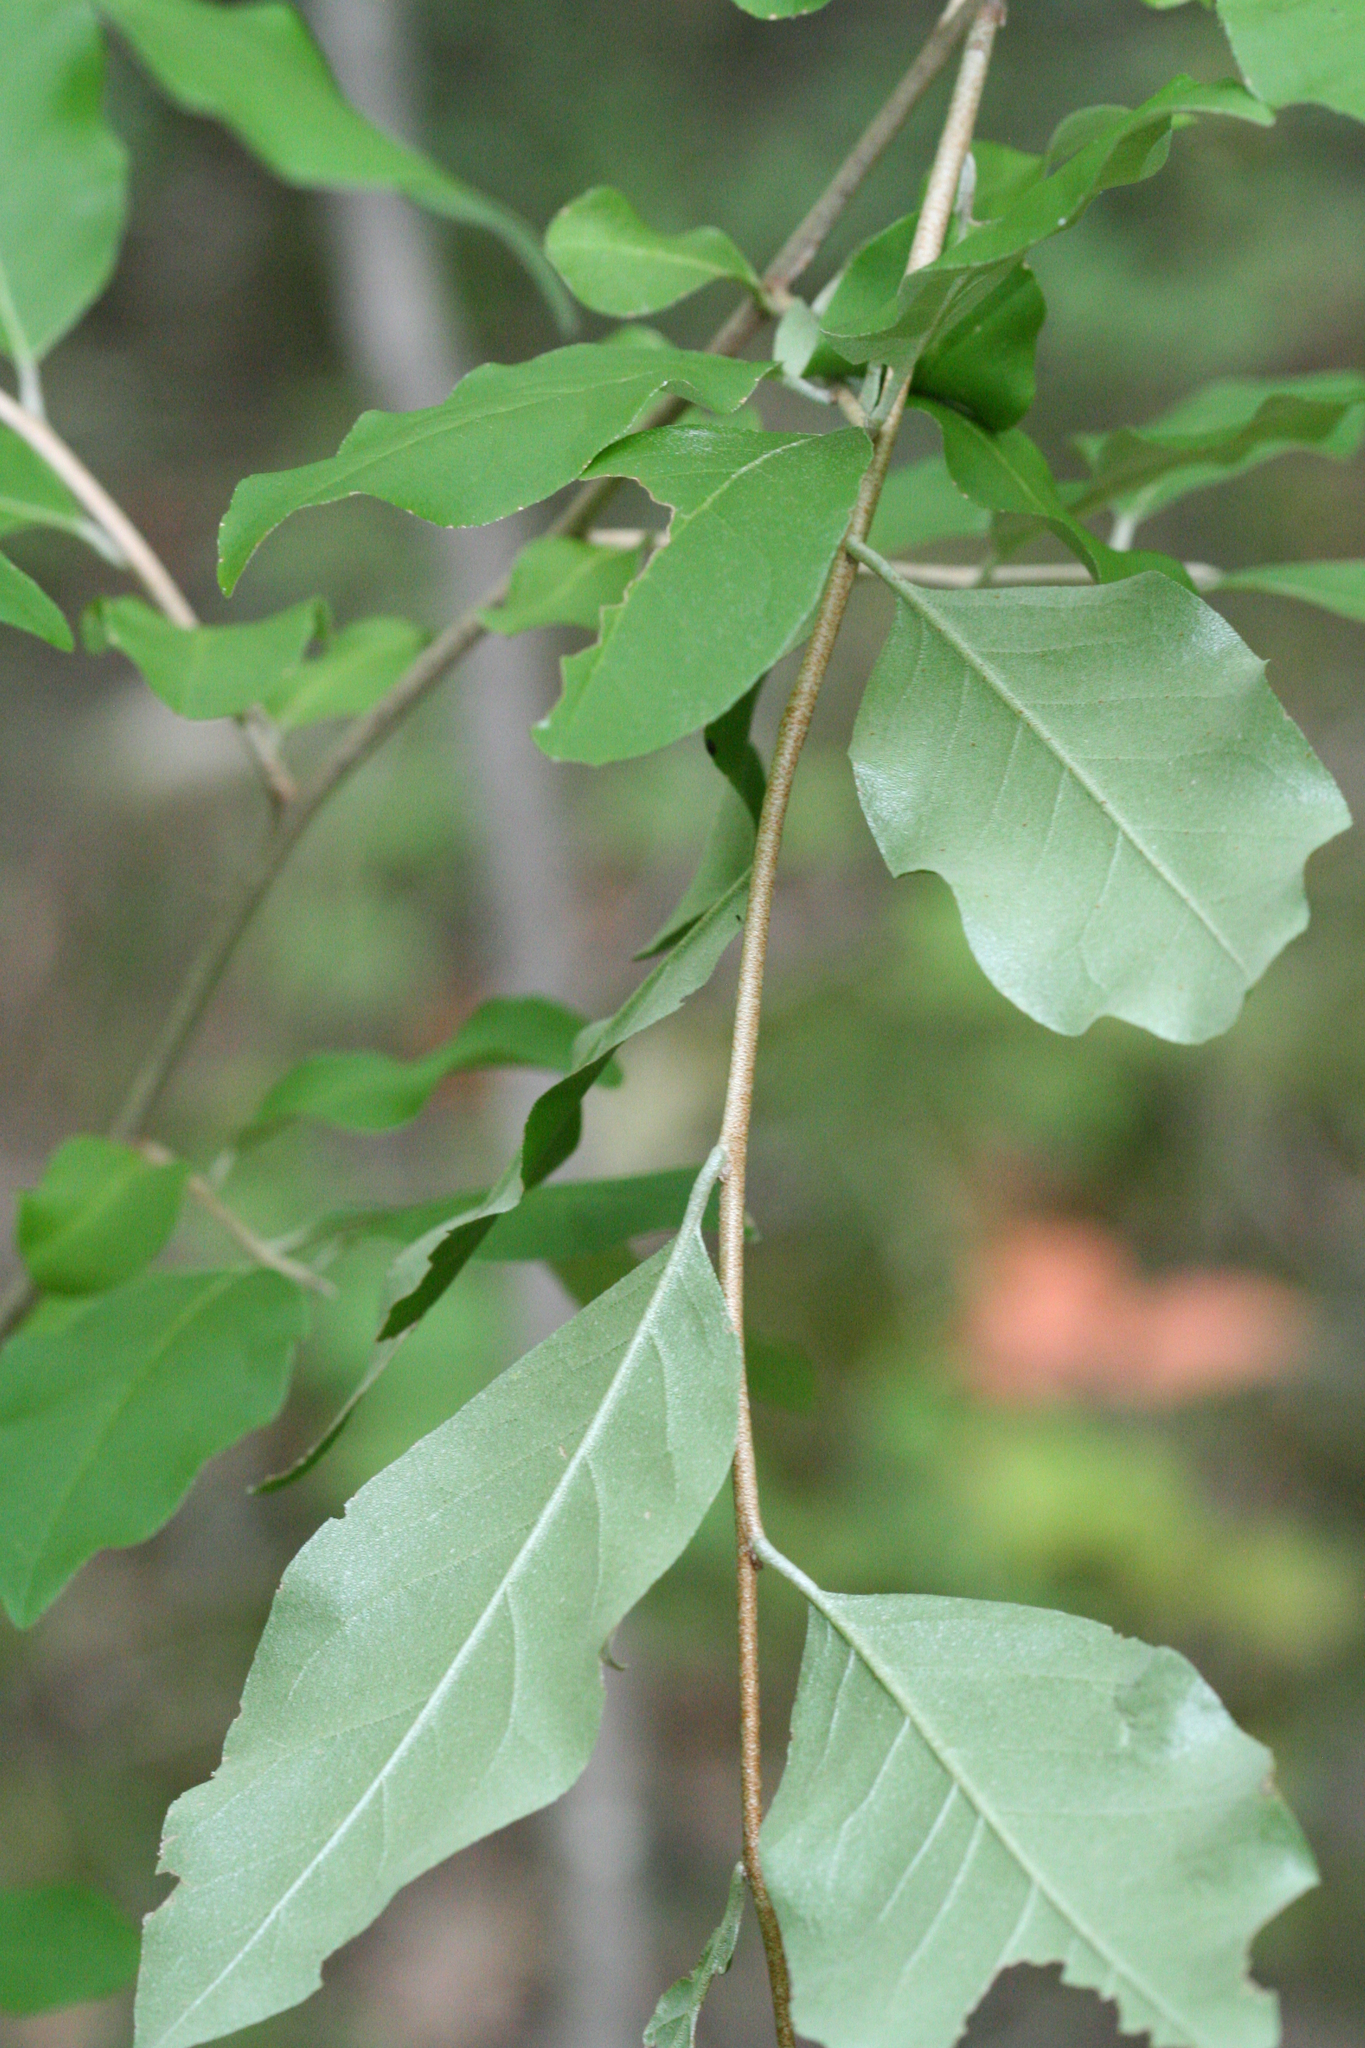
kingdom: Plantae
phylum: Tracheophyta
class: Magnoliopsida
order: Rosales
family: Elaeagnaceae
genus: Elaeagnus
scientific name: Elaeagnus umbellata
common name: Autumn olive
